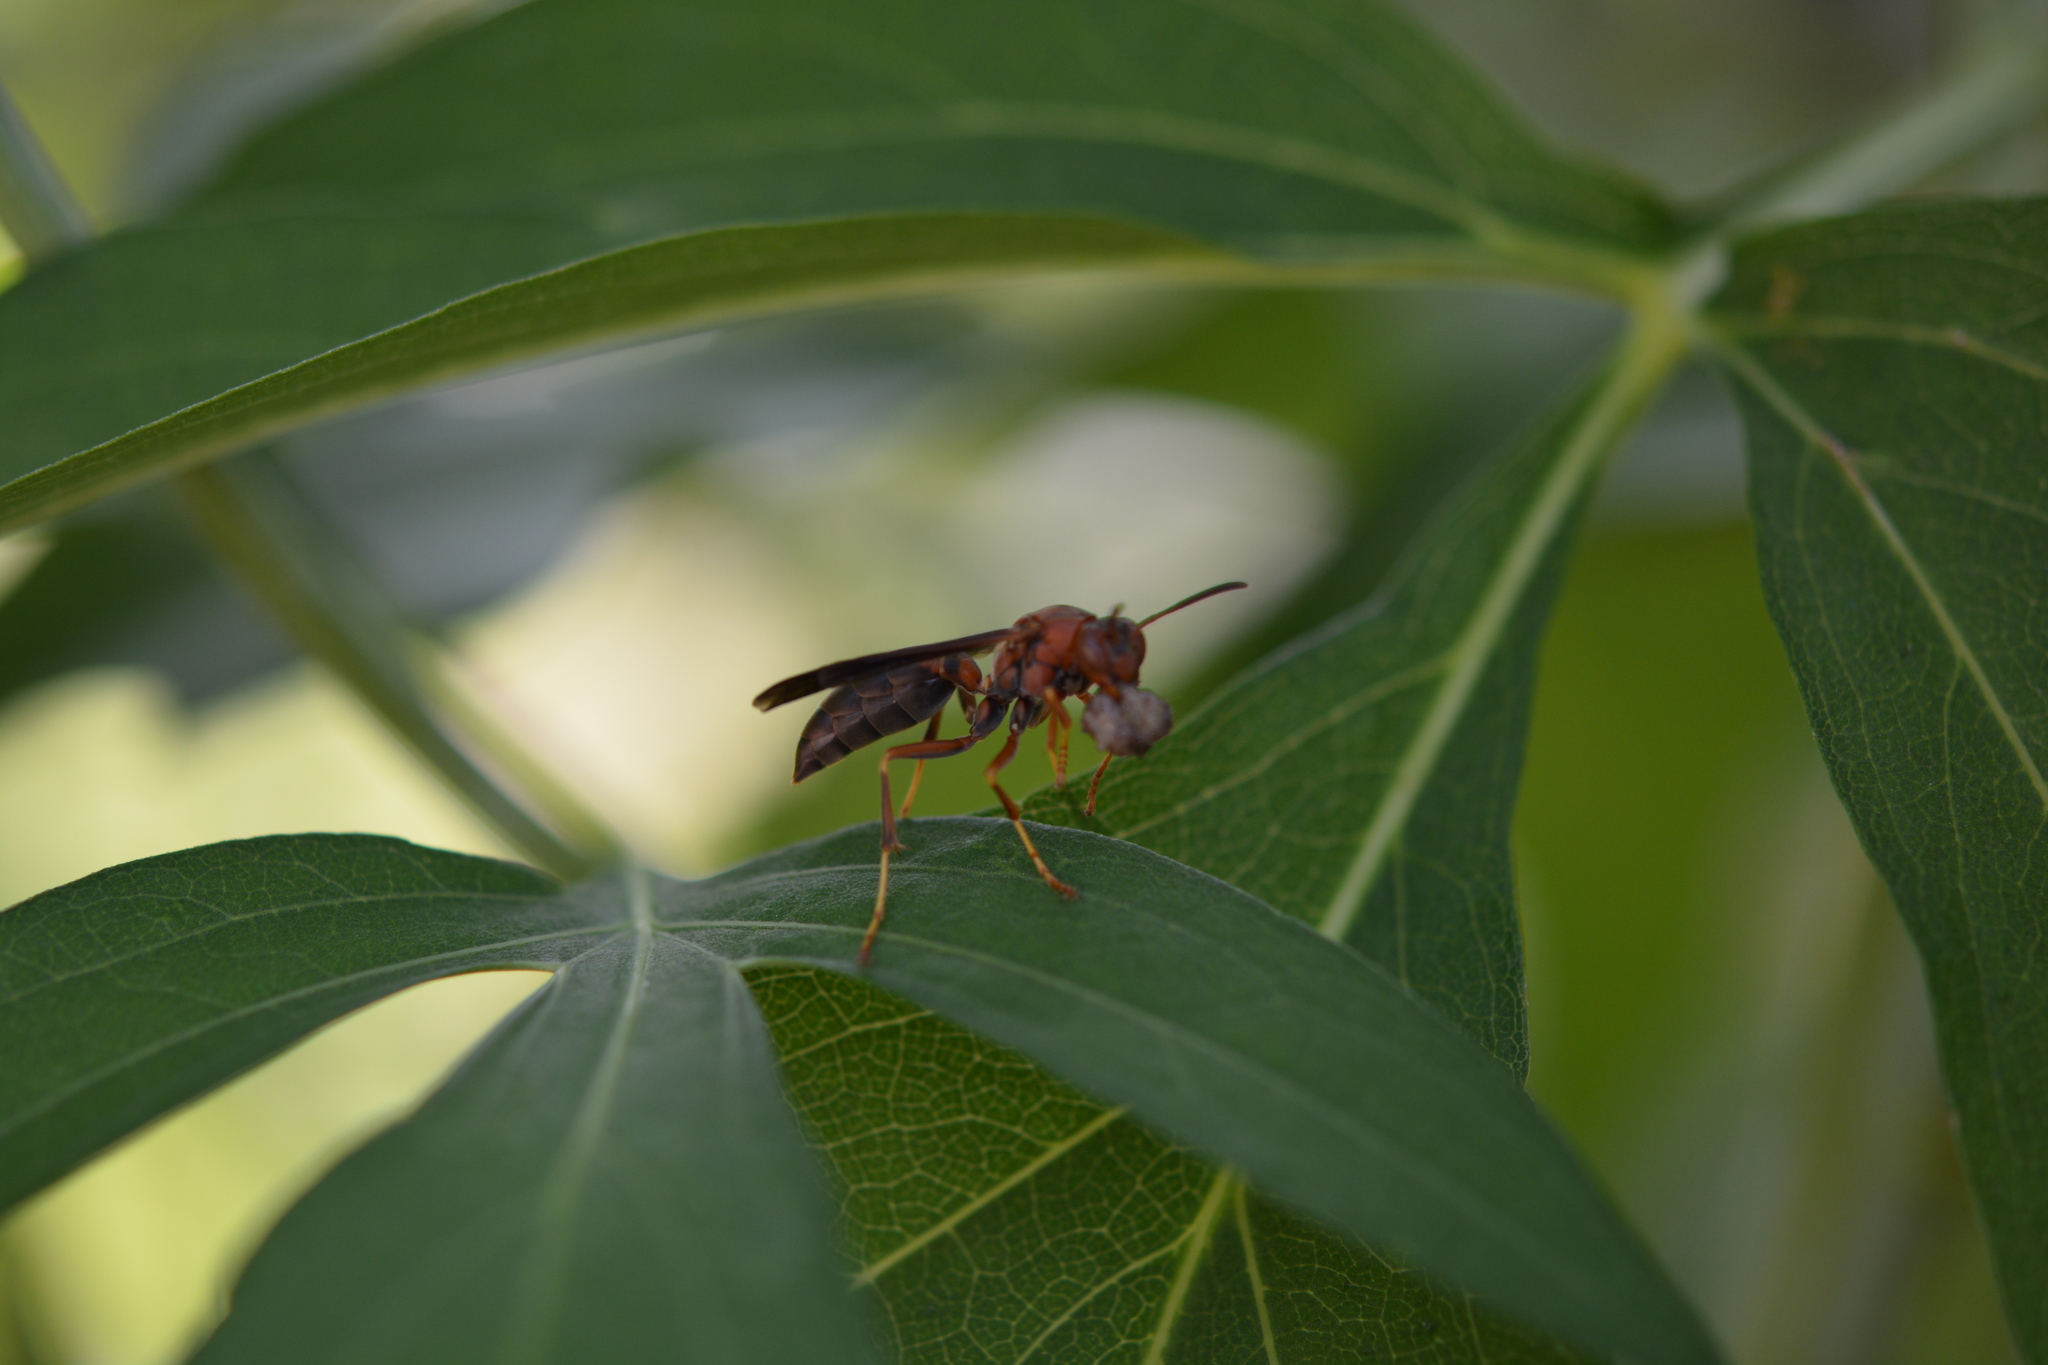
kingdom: Animalia
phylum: Arthropoda
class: Insecta
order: Hymenoptera
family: Eumenidae
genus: Polistes
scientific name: Polistes fuscatus
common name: Dark paper wasp
